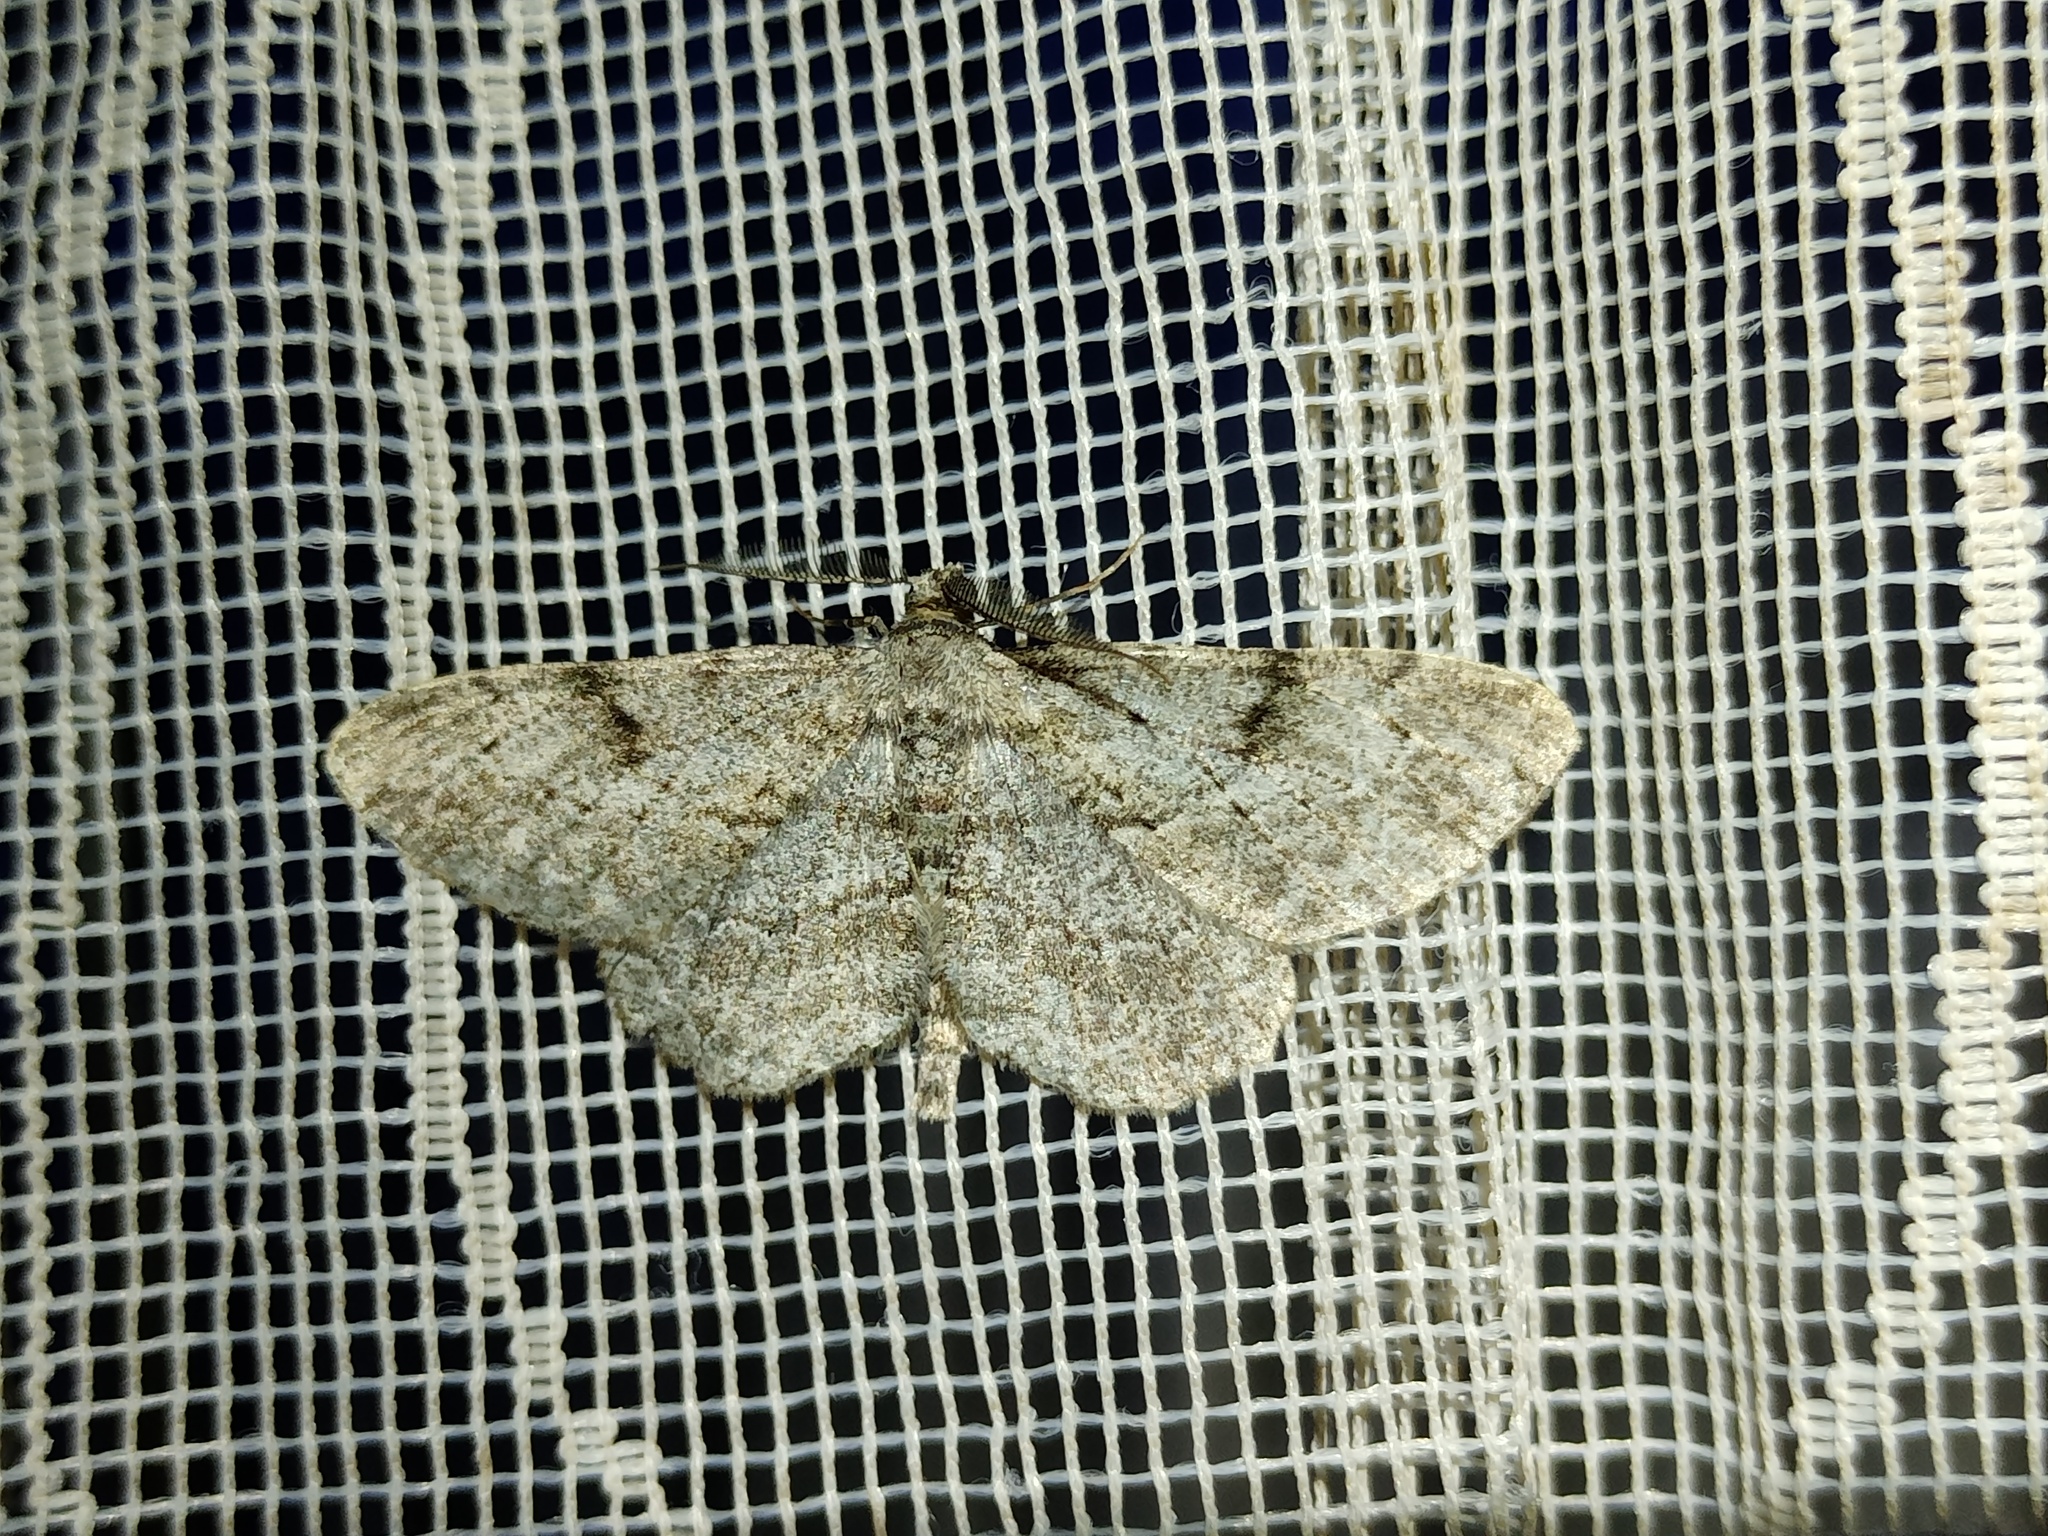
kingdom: Animalia
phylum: Arthropoda
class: Insecta
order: Lepidoptera
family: Geometridae
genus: Peribatodes
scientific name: Peribatodes rhomboidaria
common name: Willow beauty
